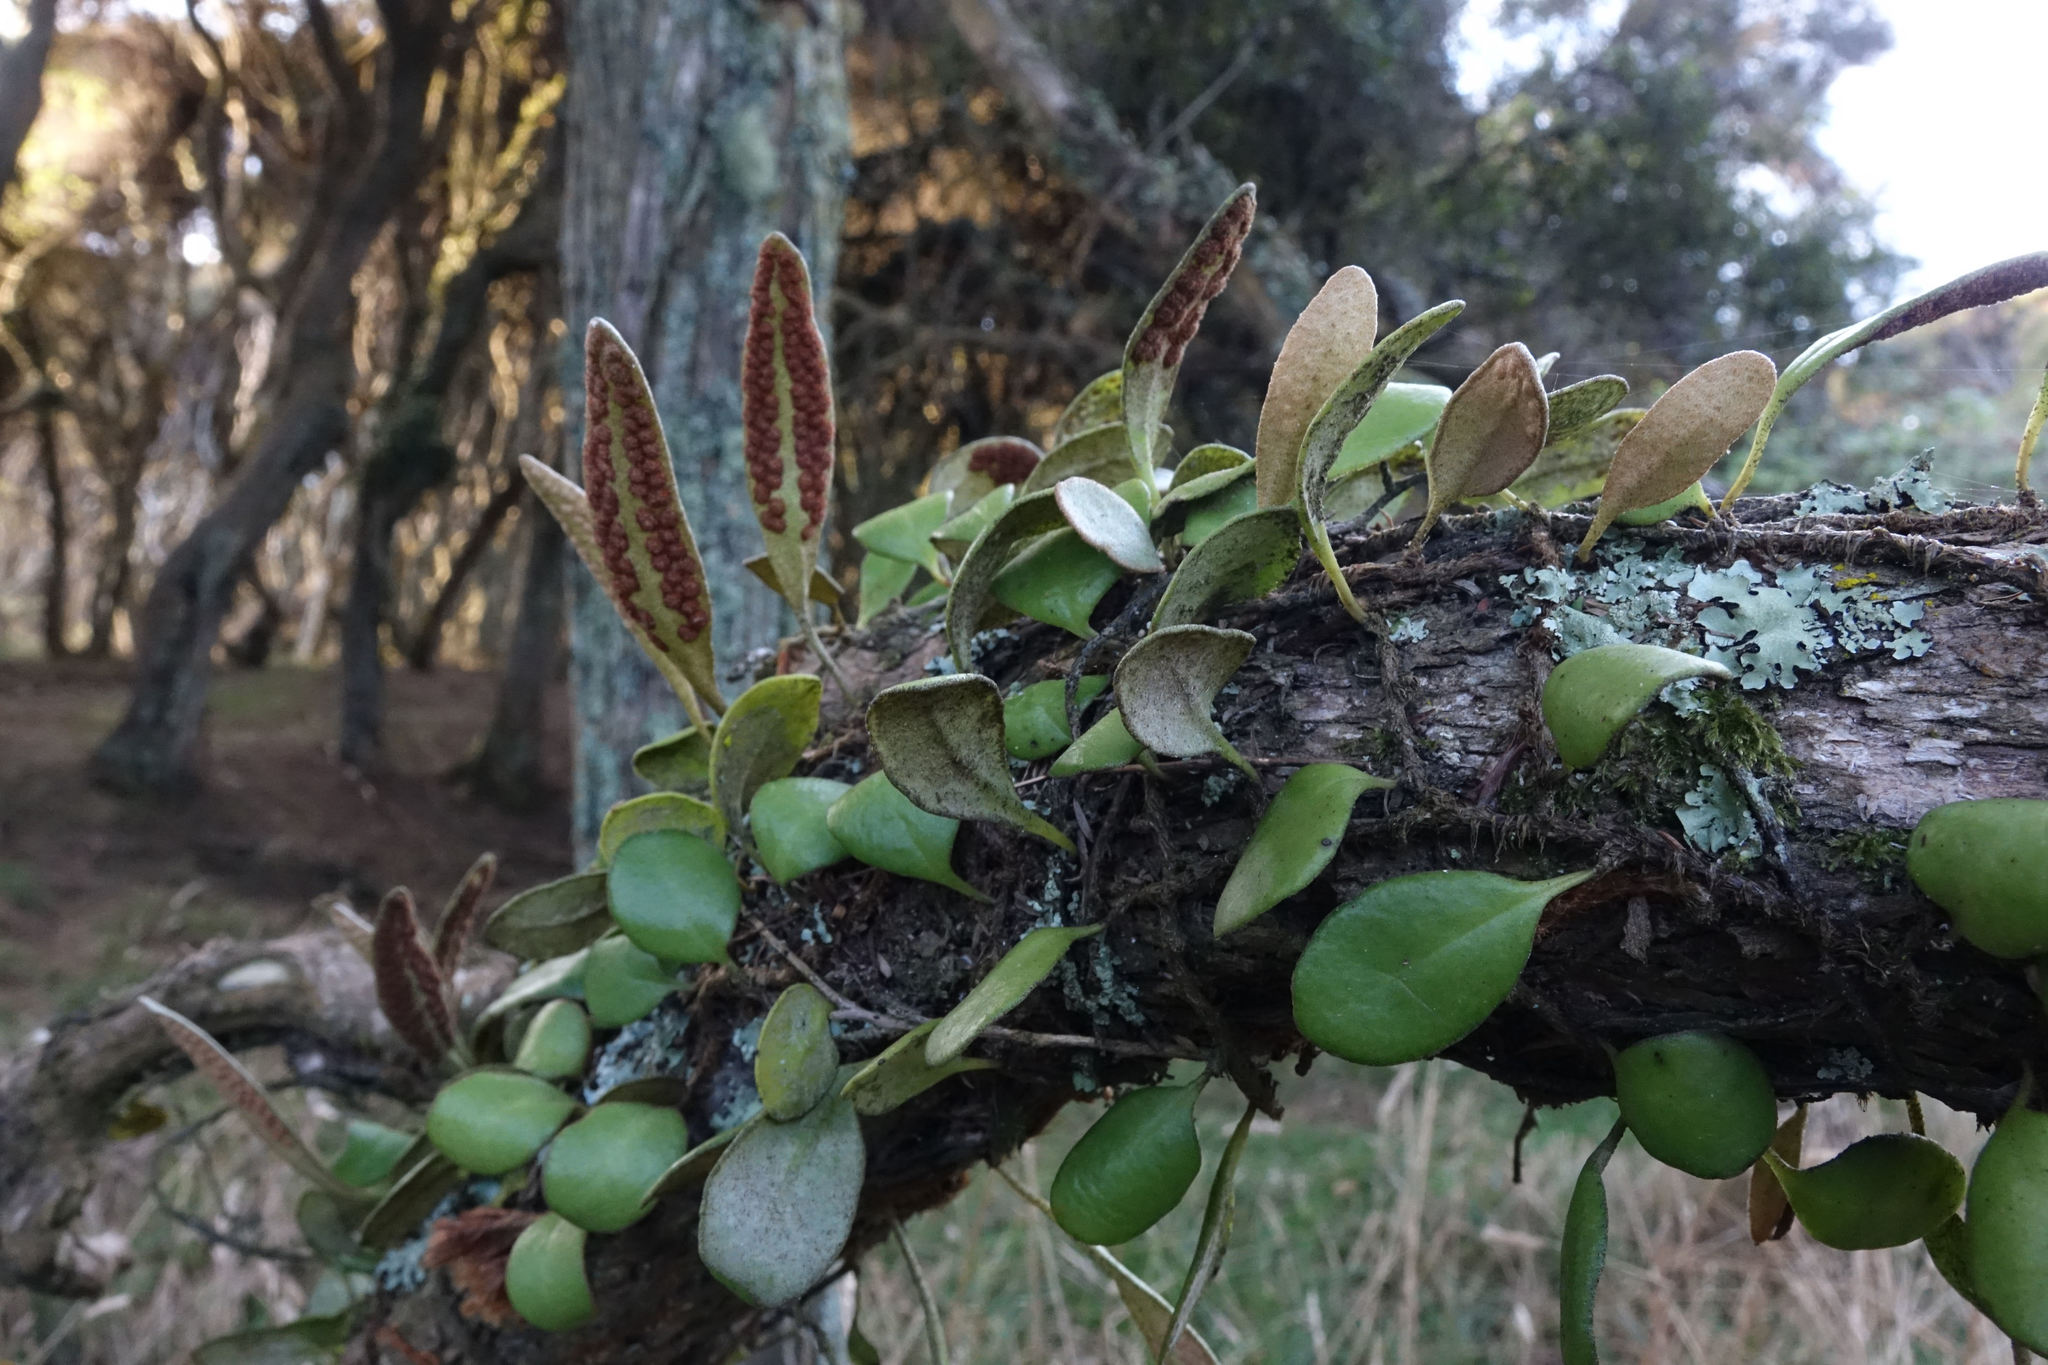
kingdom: Plantae
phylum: Tracheophyta
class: Polypodiopsida
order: Polypodiales
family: Polypodiaceae
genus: Pyrrosia
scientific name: Pyrrosia eleagnifolia
